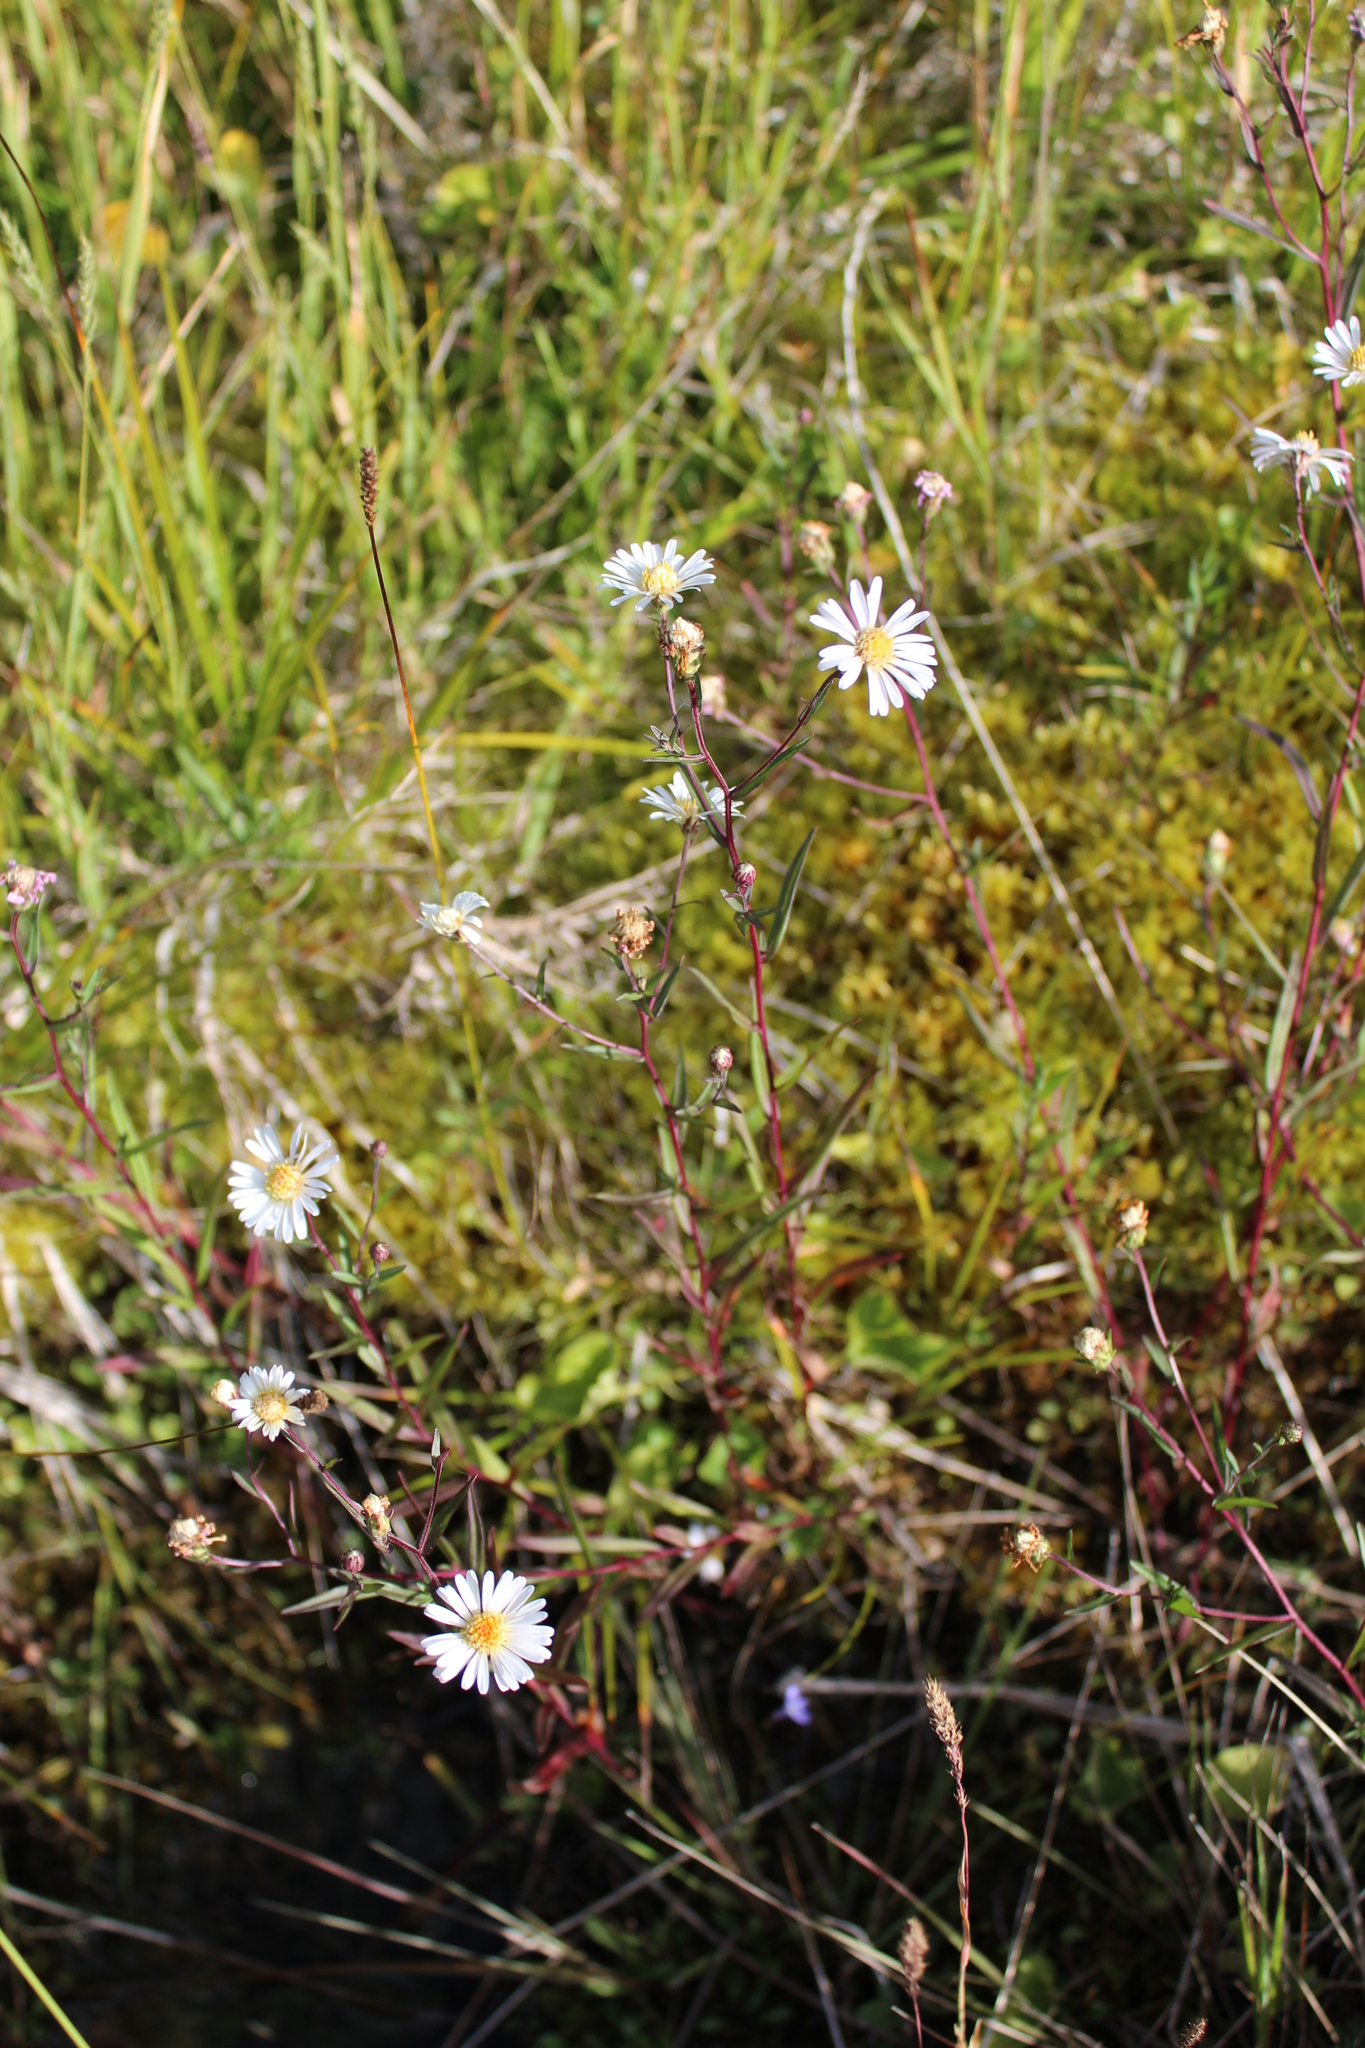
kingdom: Plantae
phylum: Tracheophyta
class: Magnoliopsida
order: Asterales
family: Asteraceae
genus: Symphyotrichum
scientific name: Symphyotrichum nahanniense
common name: Nahanni aster
